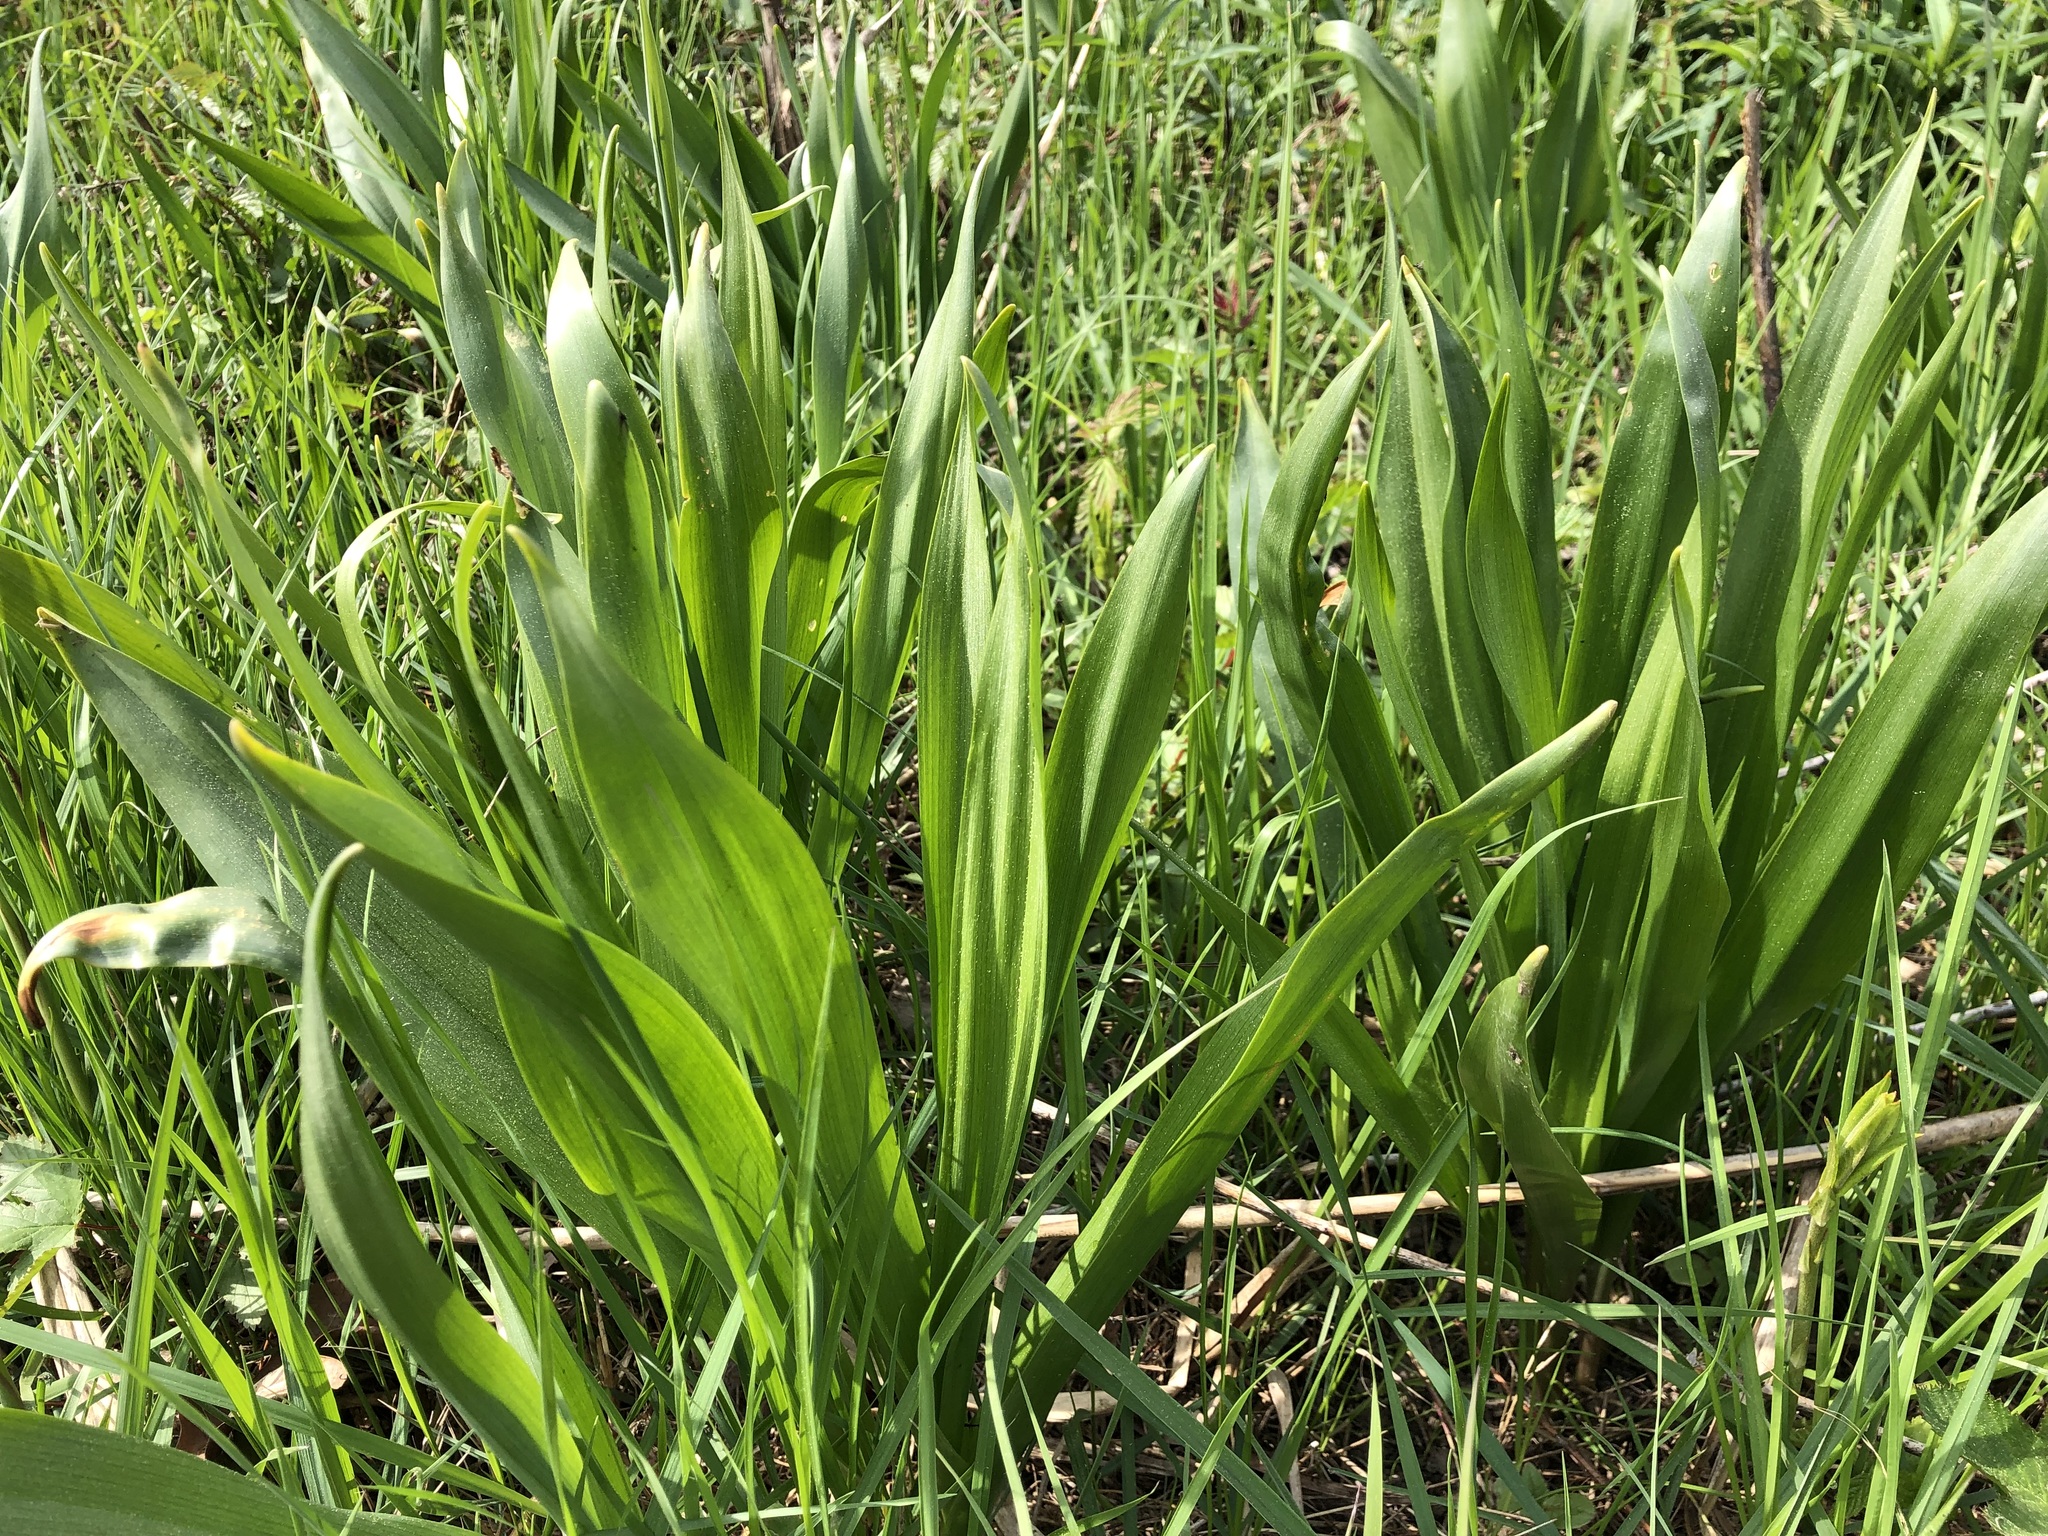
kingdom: Plantae
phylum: Tracheophyta
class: Liliopsida
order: Liliales
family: Colchicaceae
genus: Colchicum
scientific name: Colchicum autumnale
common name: Autumn crocus
